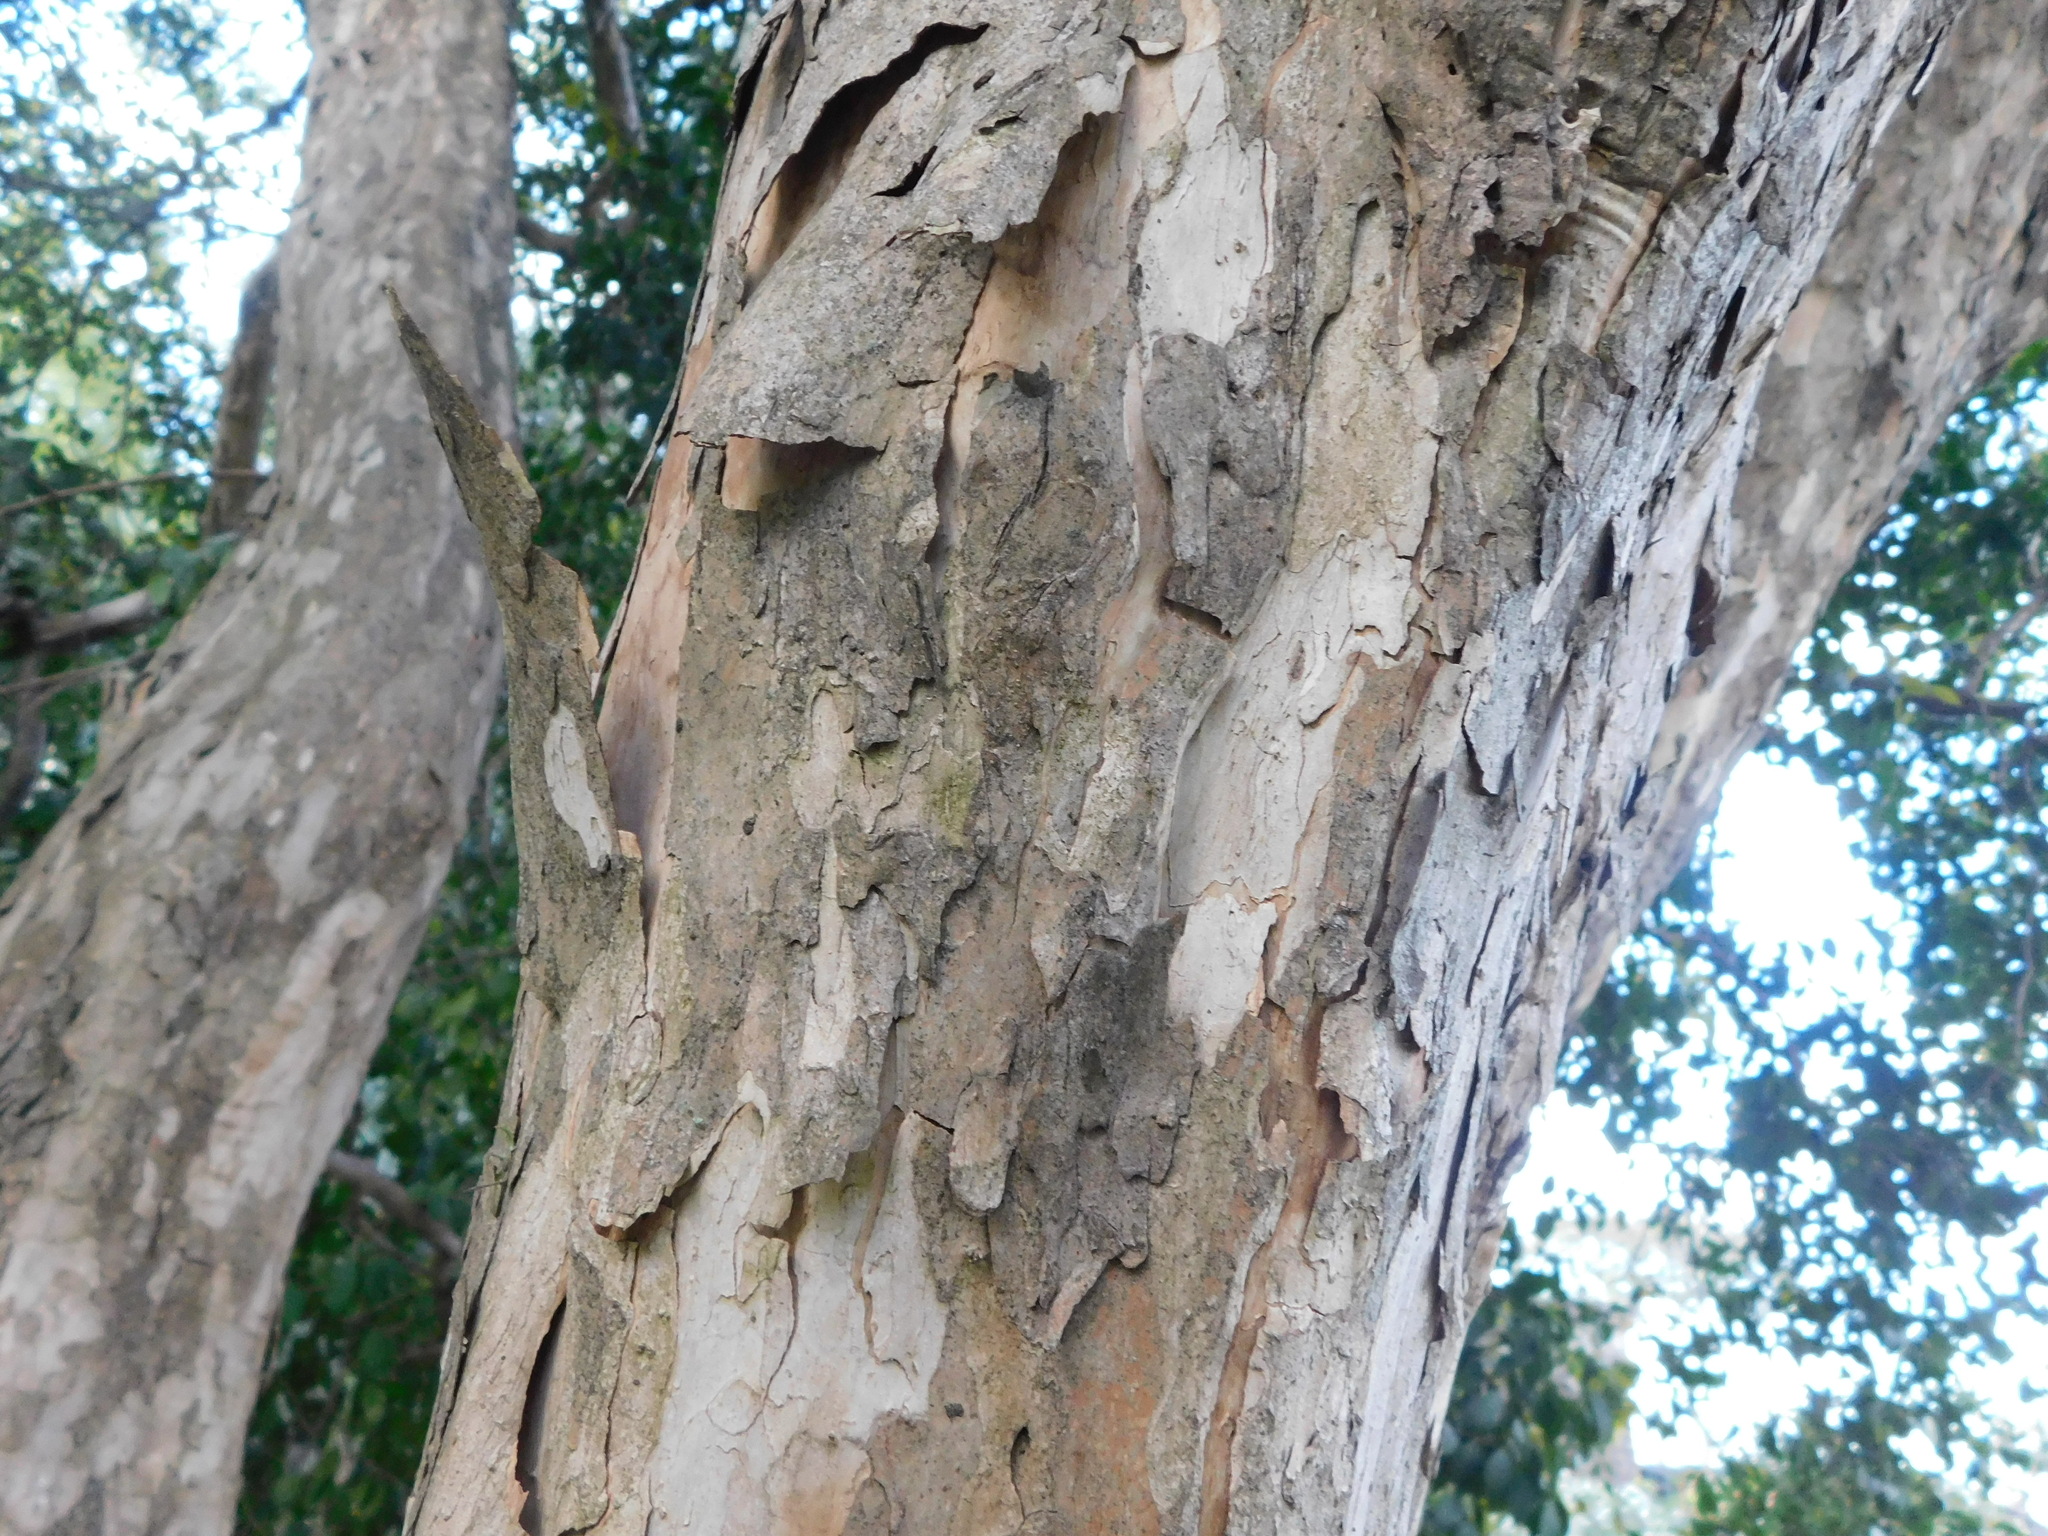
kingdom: Plantae
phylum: Tracheophyta
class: Magnoliopsida
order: Myrtales
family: Myrtaceae
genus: Myrcianthes
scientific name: Myrcianthes pungens
